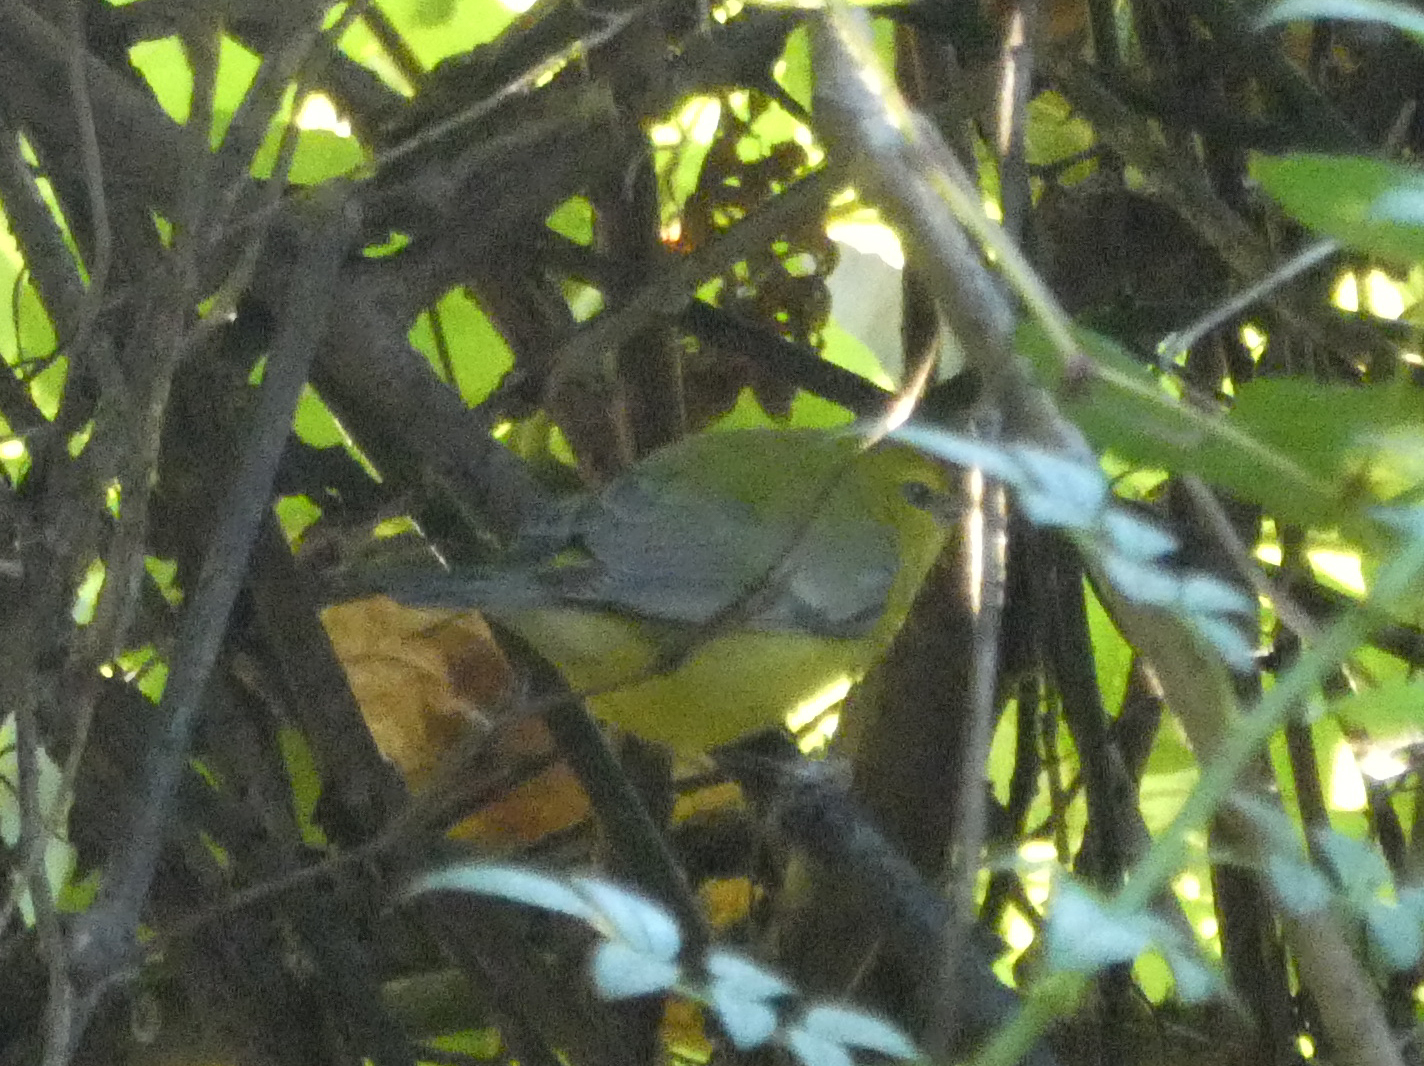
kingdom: Animalia
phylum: Chordata
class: Aves
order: Passeriformes
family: Parulidae
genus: Vermivora
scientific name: Vermivora cyanoptera
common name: Blue-winged warbler
